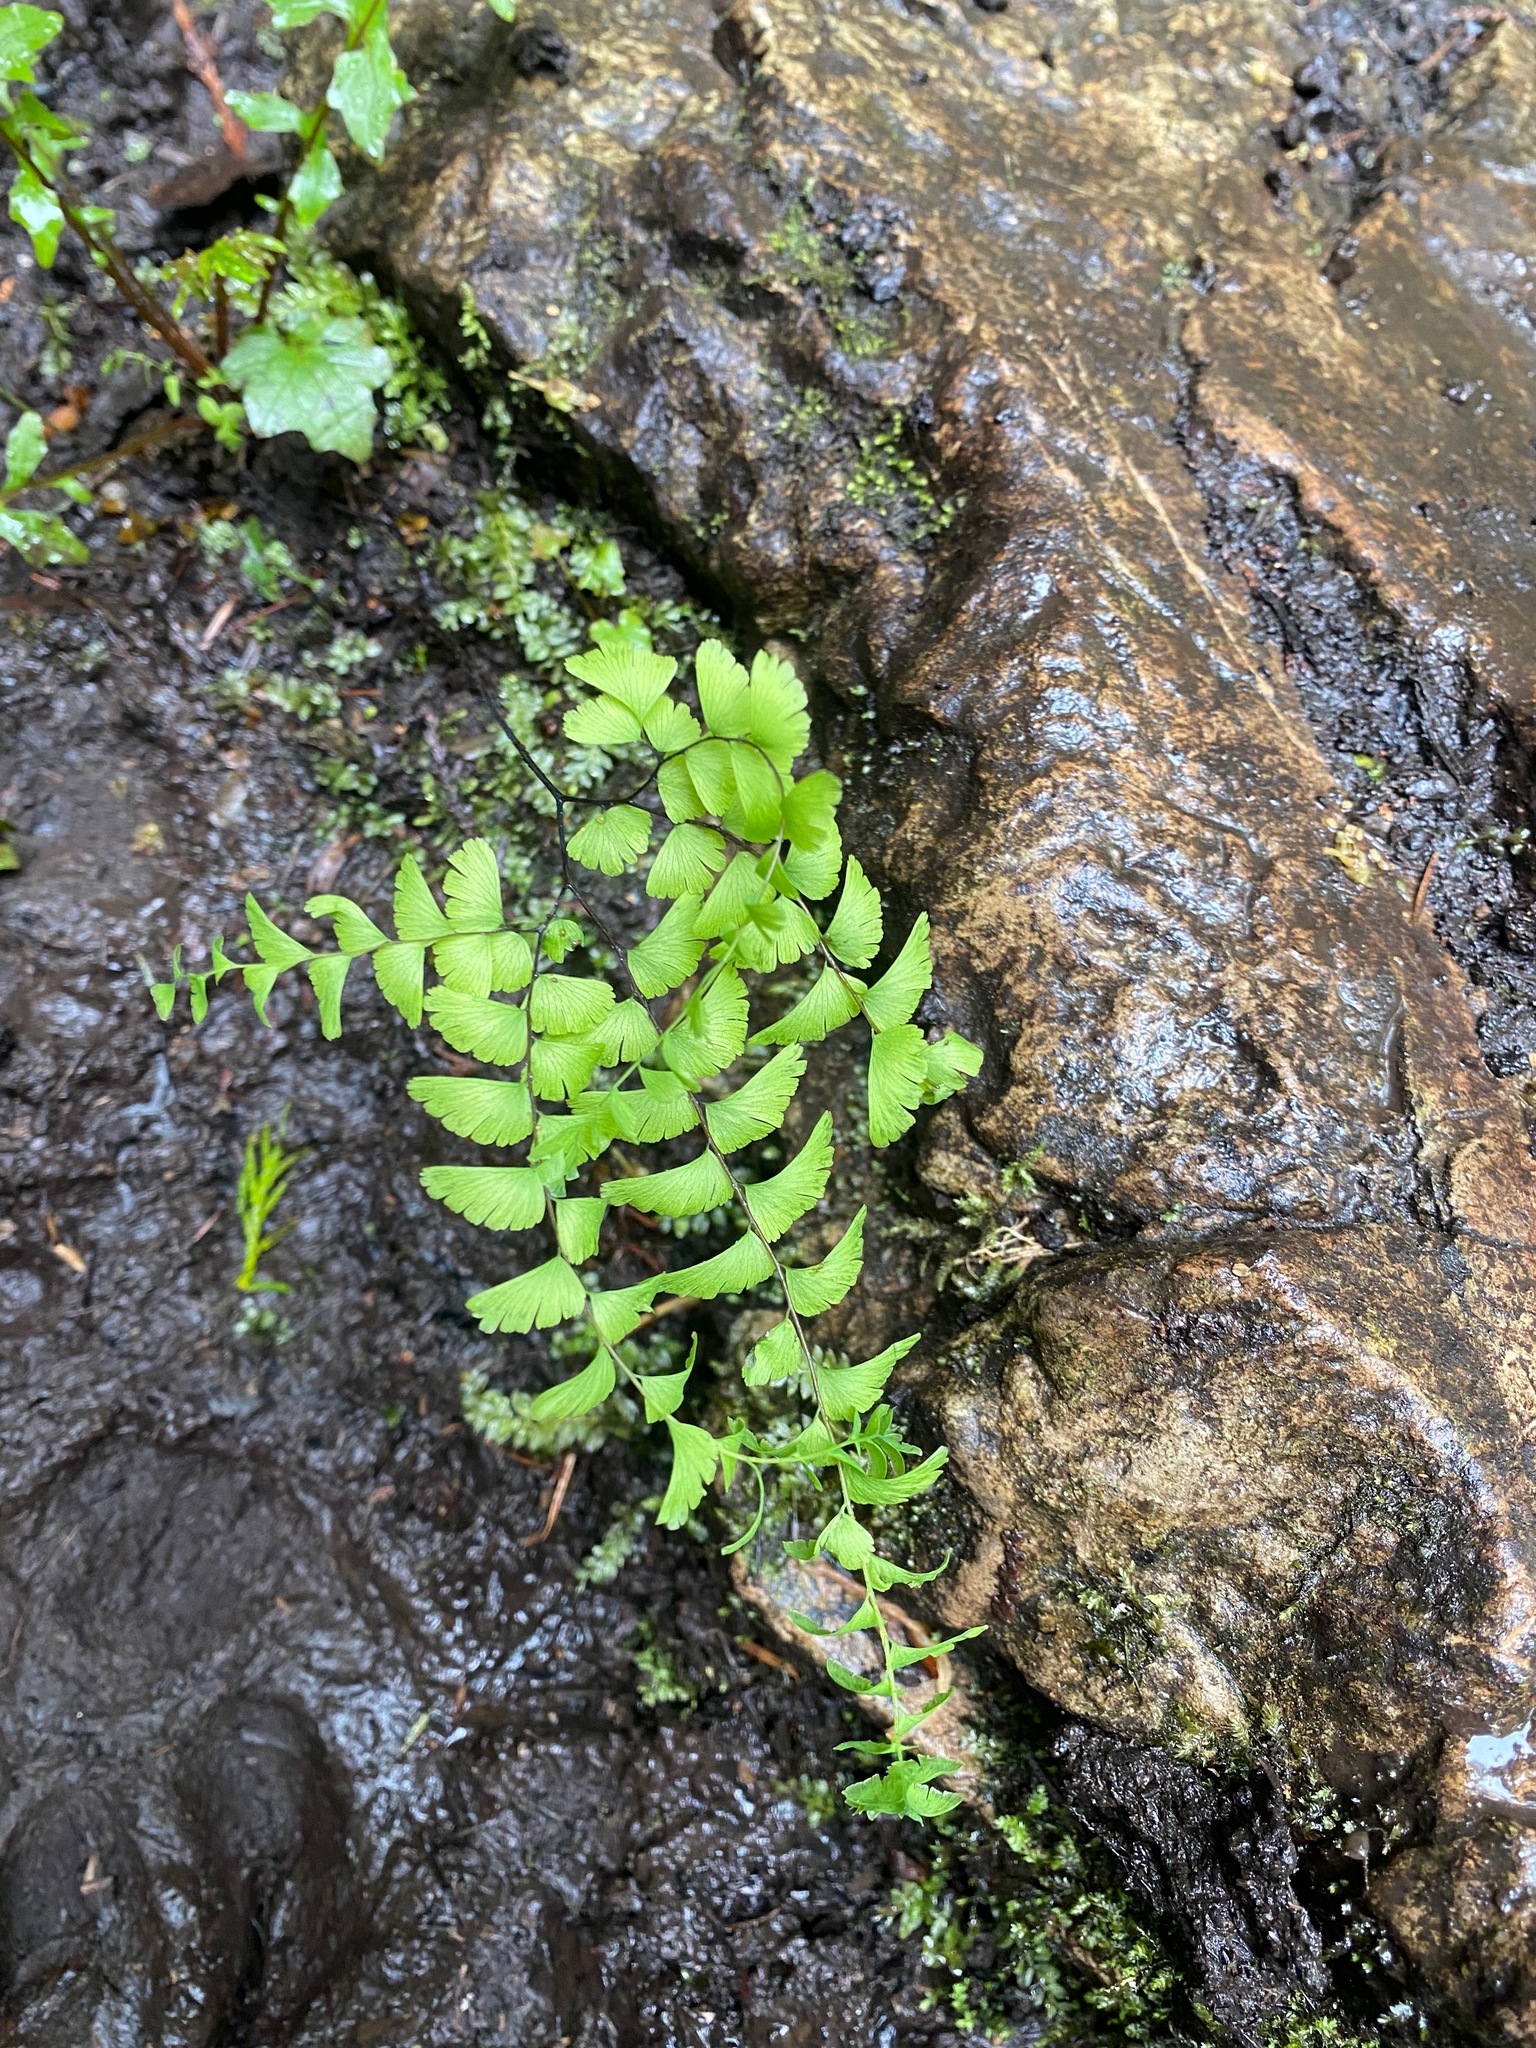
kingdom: Plantae
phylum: Tracheophyta
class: Polypodiopsida
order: Polypodiales
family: Pteridaceae
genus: Adiantum
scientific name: Adiantum aleuticum
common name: Aleutian maidenhair fern
